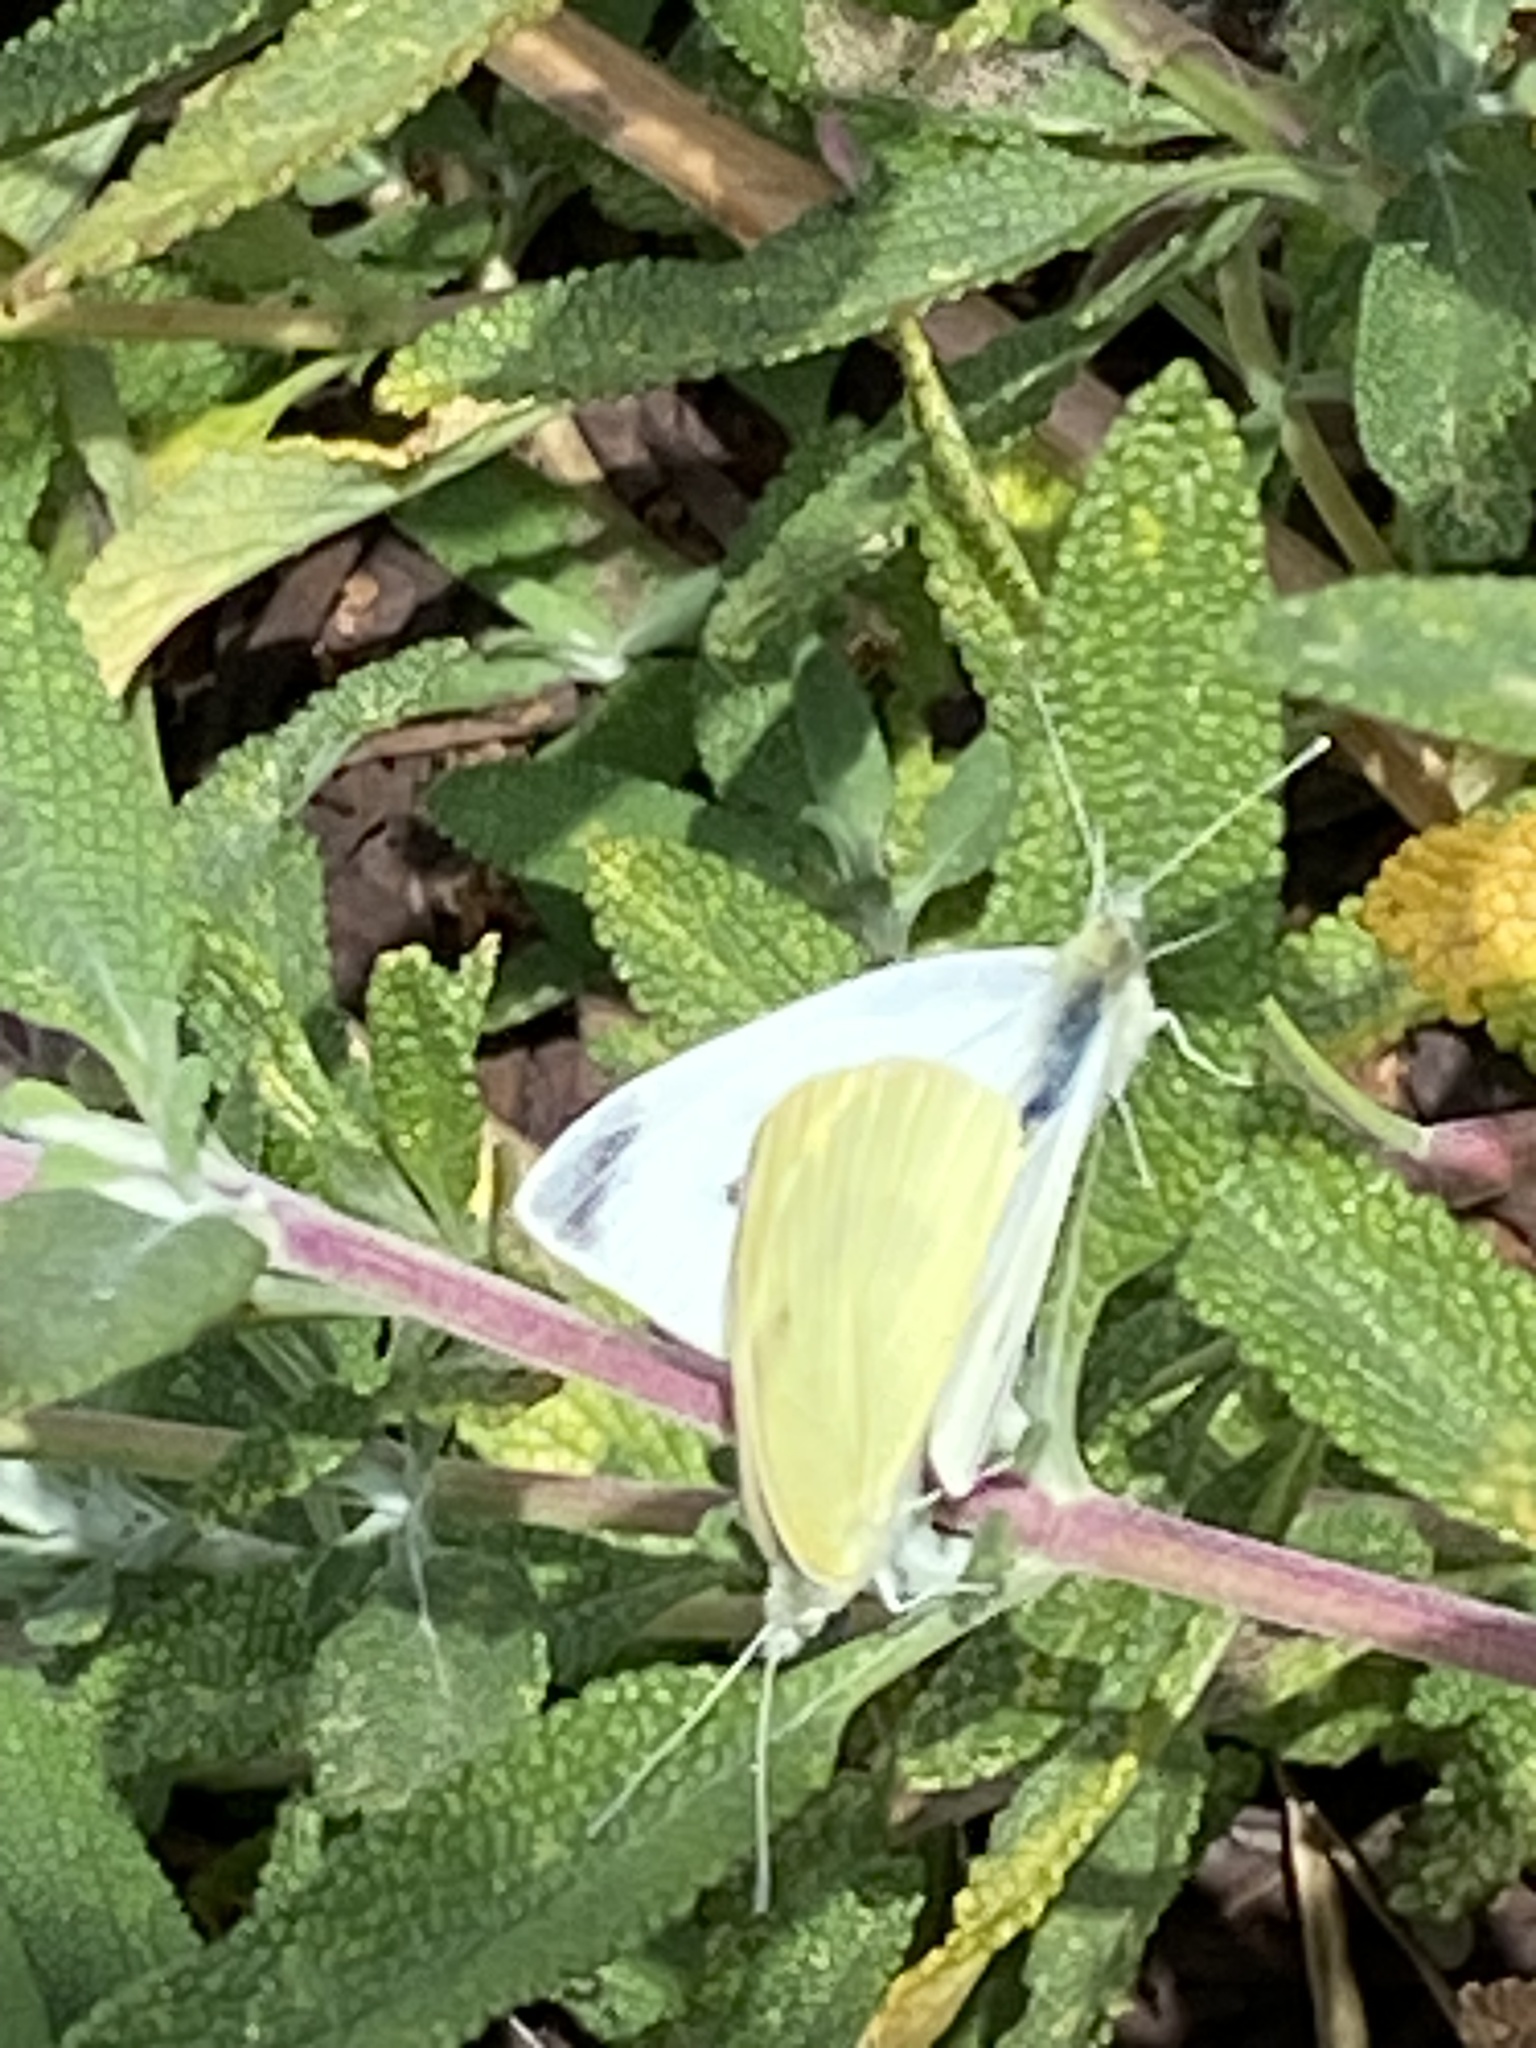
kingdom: Animalia
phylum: Arthropoda
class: Insecta
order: Lepidoptera
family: Pieridae
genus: Pieris
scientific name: Pieris rapae
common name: Small white
